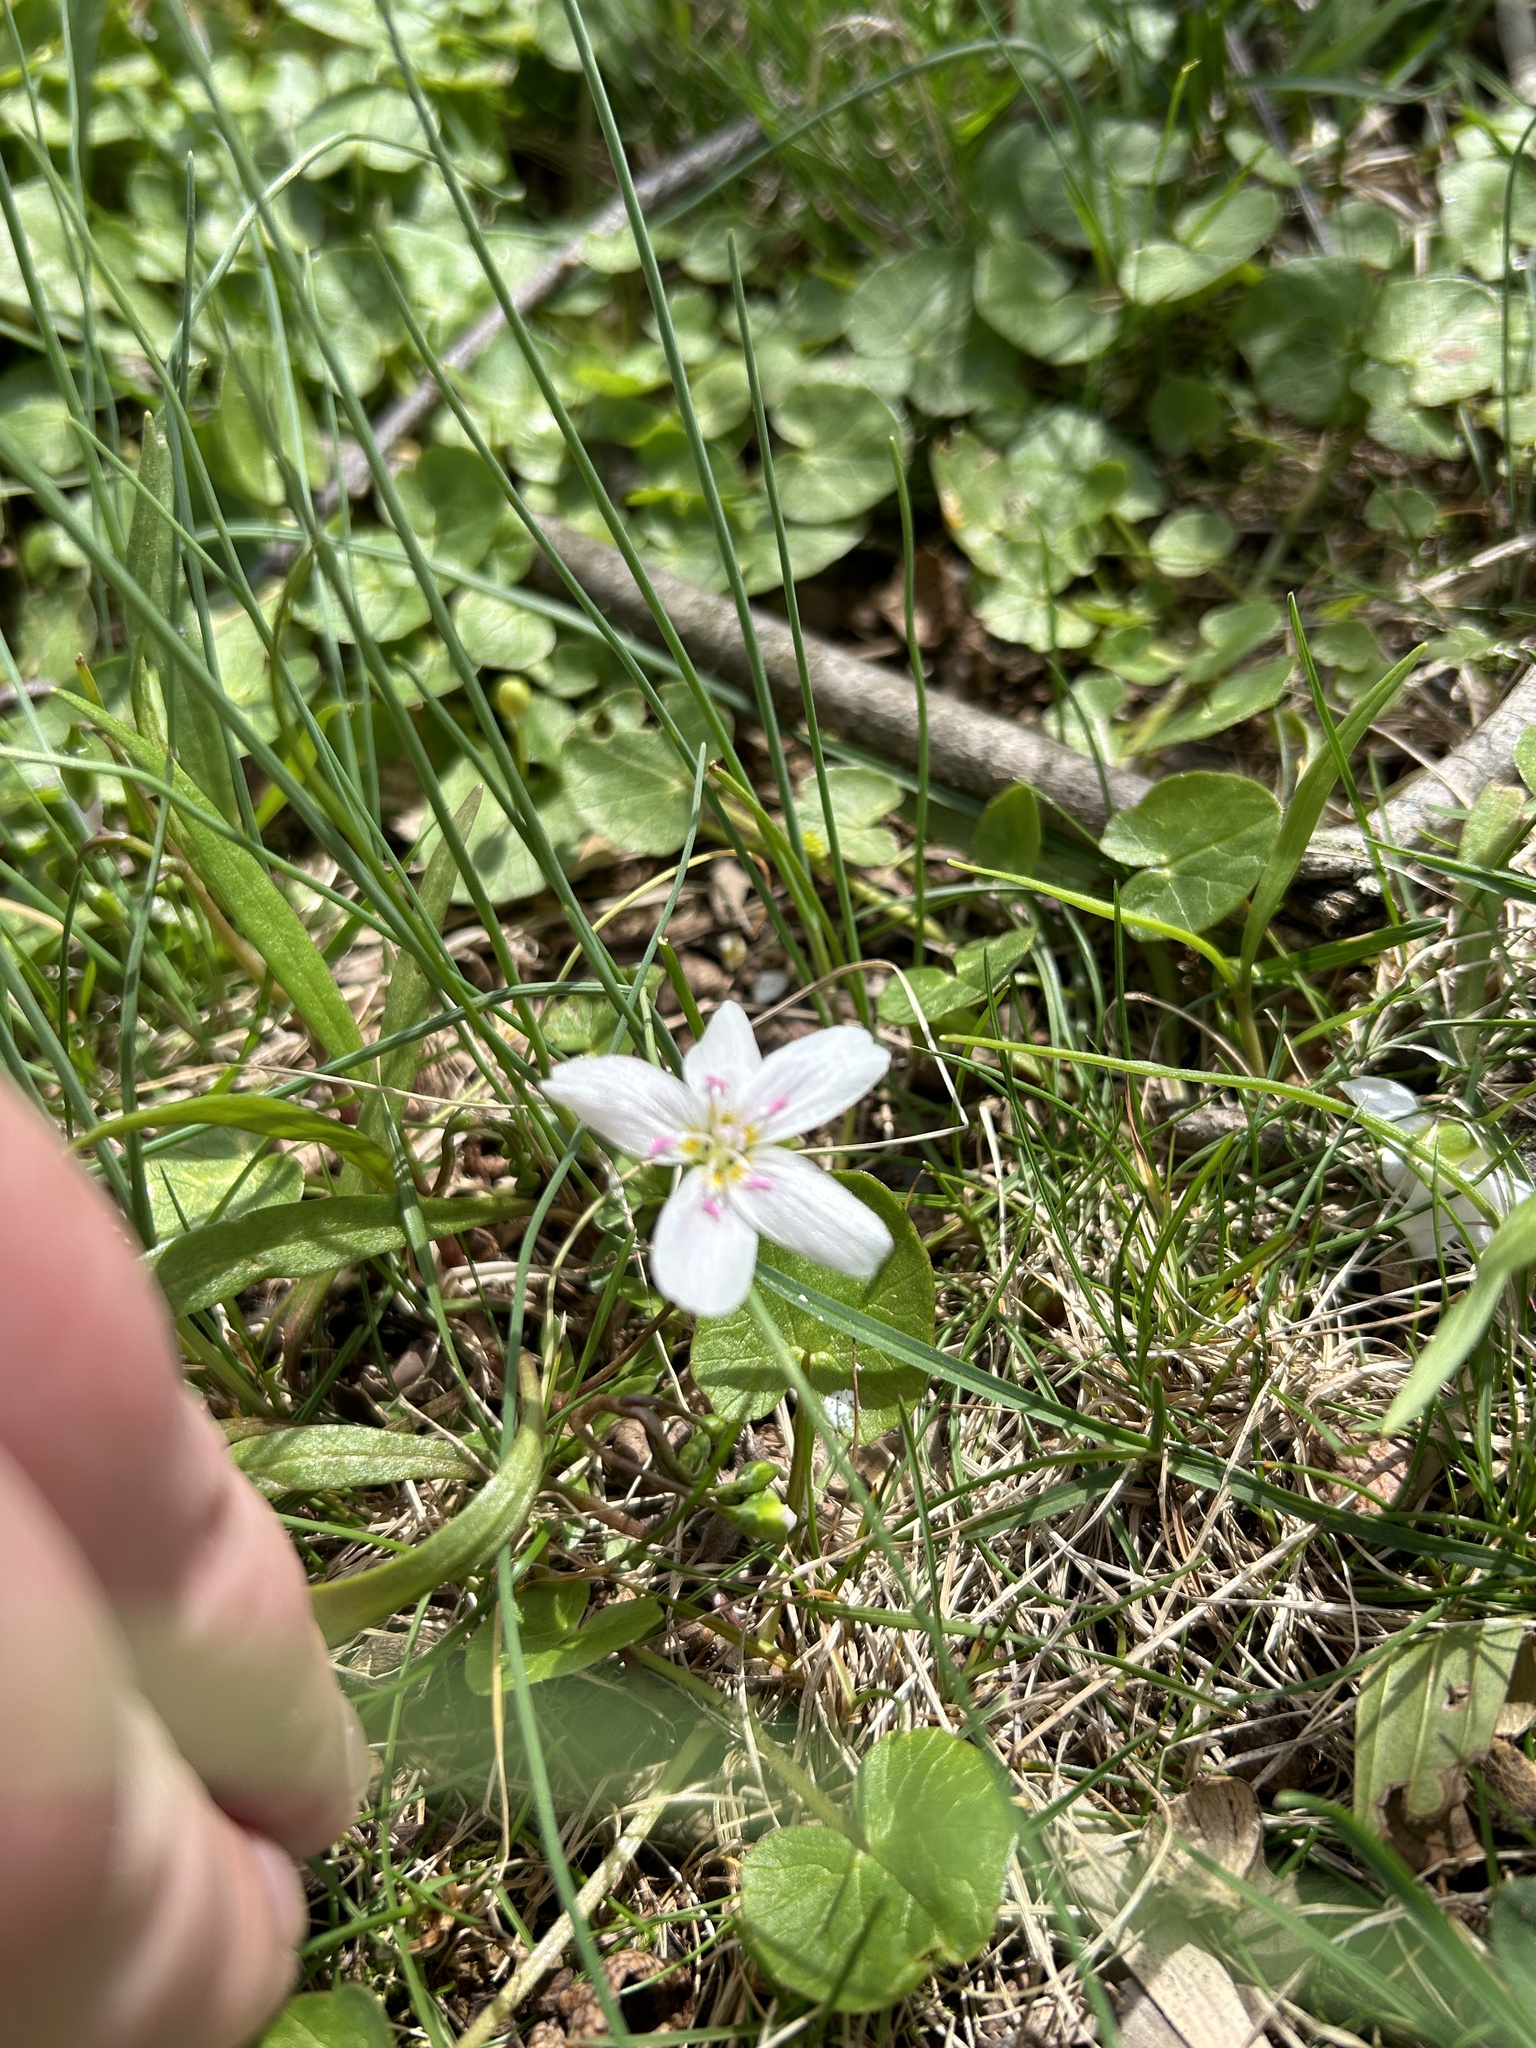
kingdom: Plantae
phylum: Tracheophyta
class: Magnoliopsida
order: Caryophyllales
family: Montiaceae
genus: Claytonia
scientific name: Claytonia virginica
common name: Virginia springbeauty
